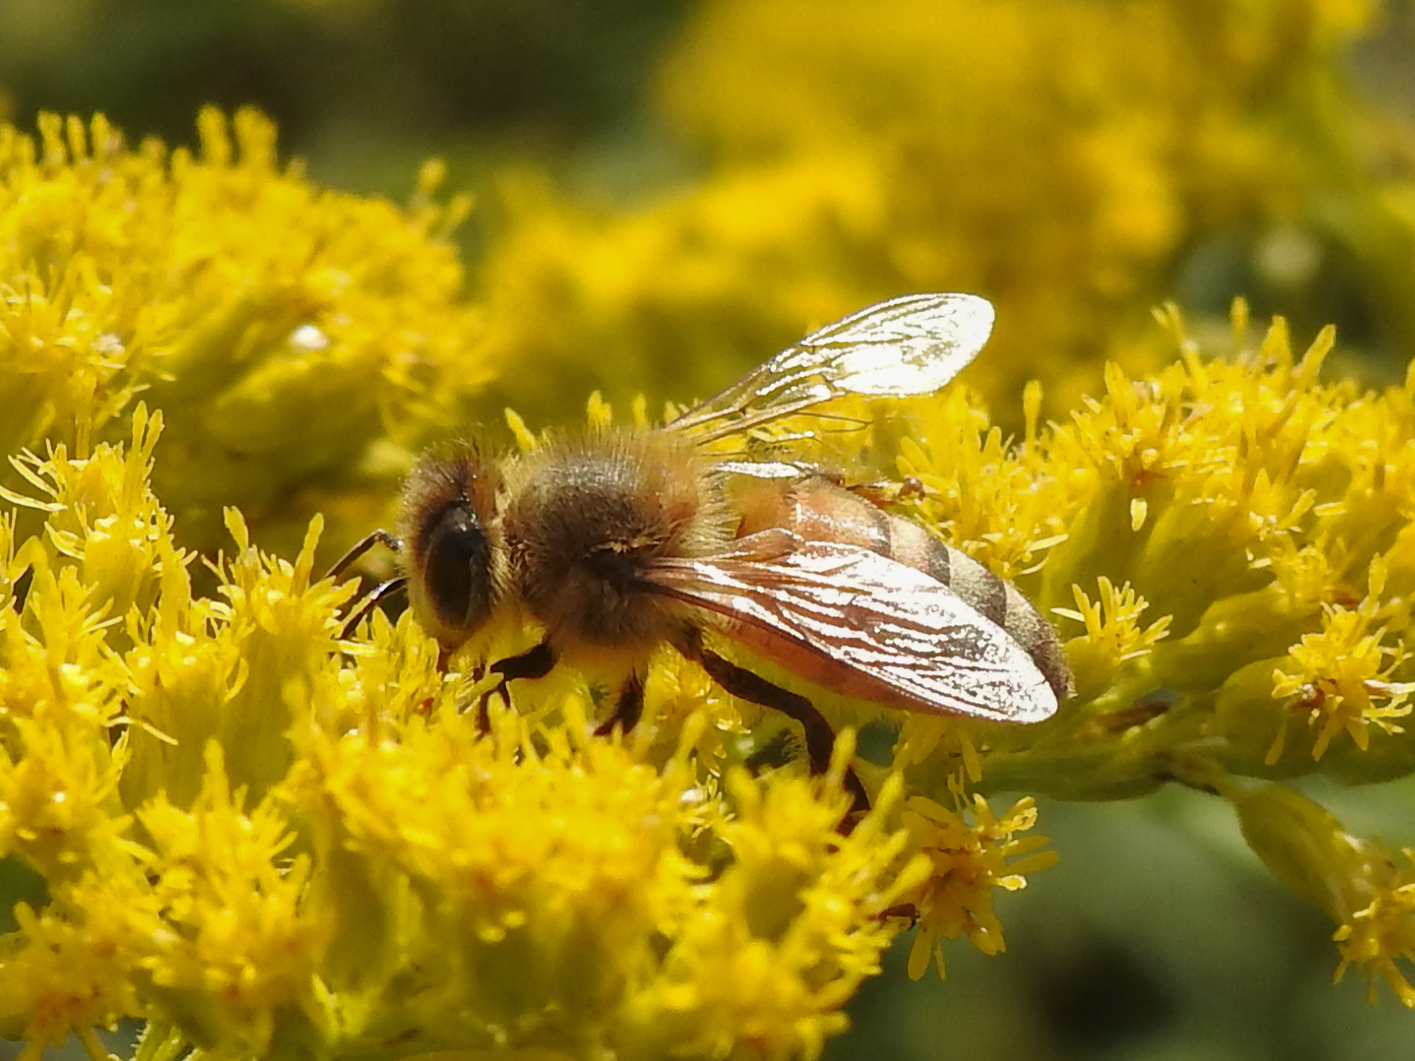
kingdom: Animalia
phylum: Arthropoda
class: Insecta
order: Hymenoptera
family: Apidae
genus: Apis
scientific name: Apis mellifera
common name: Honey bee
